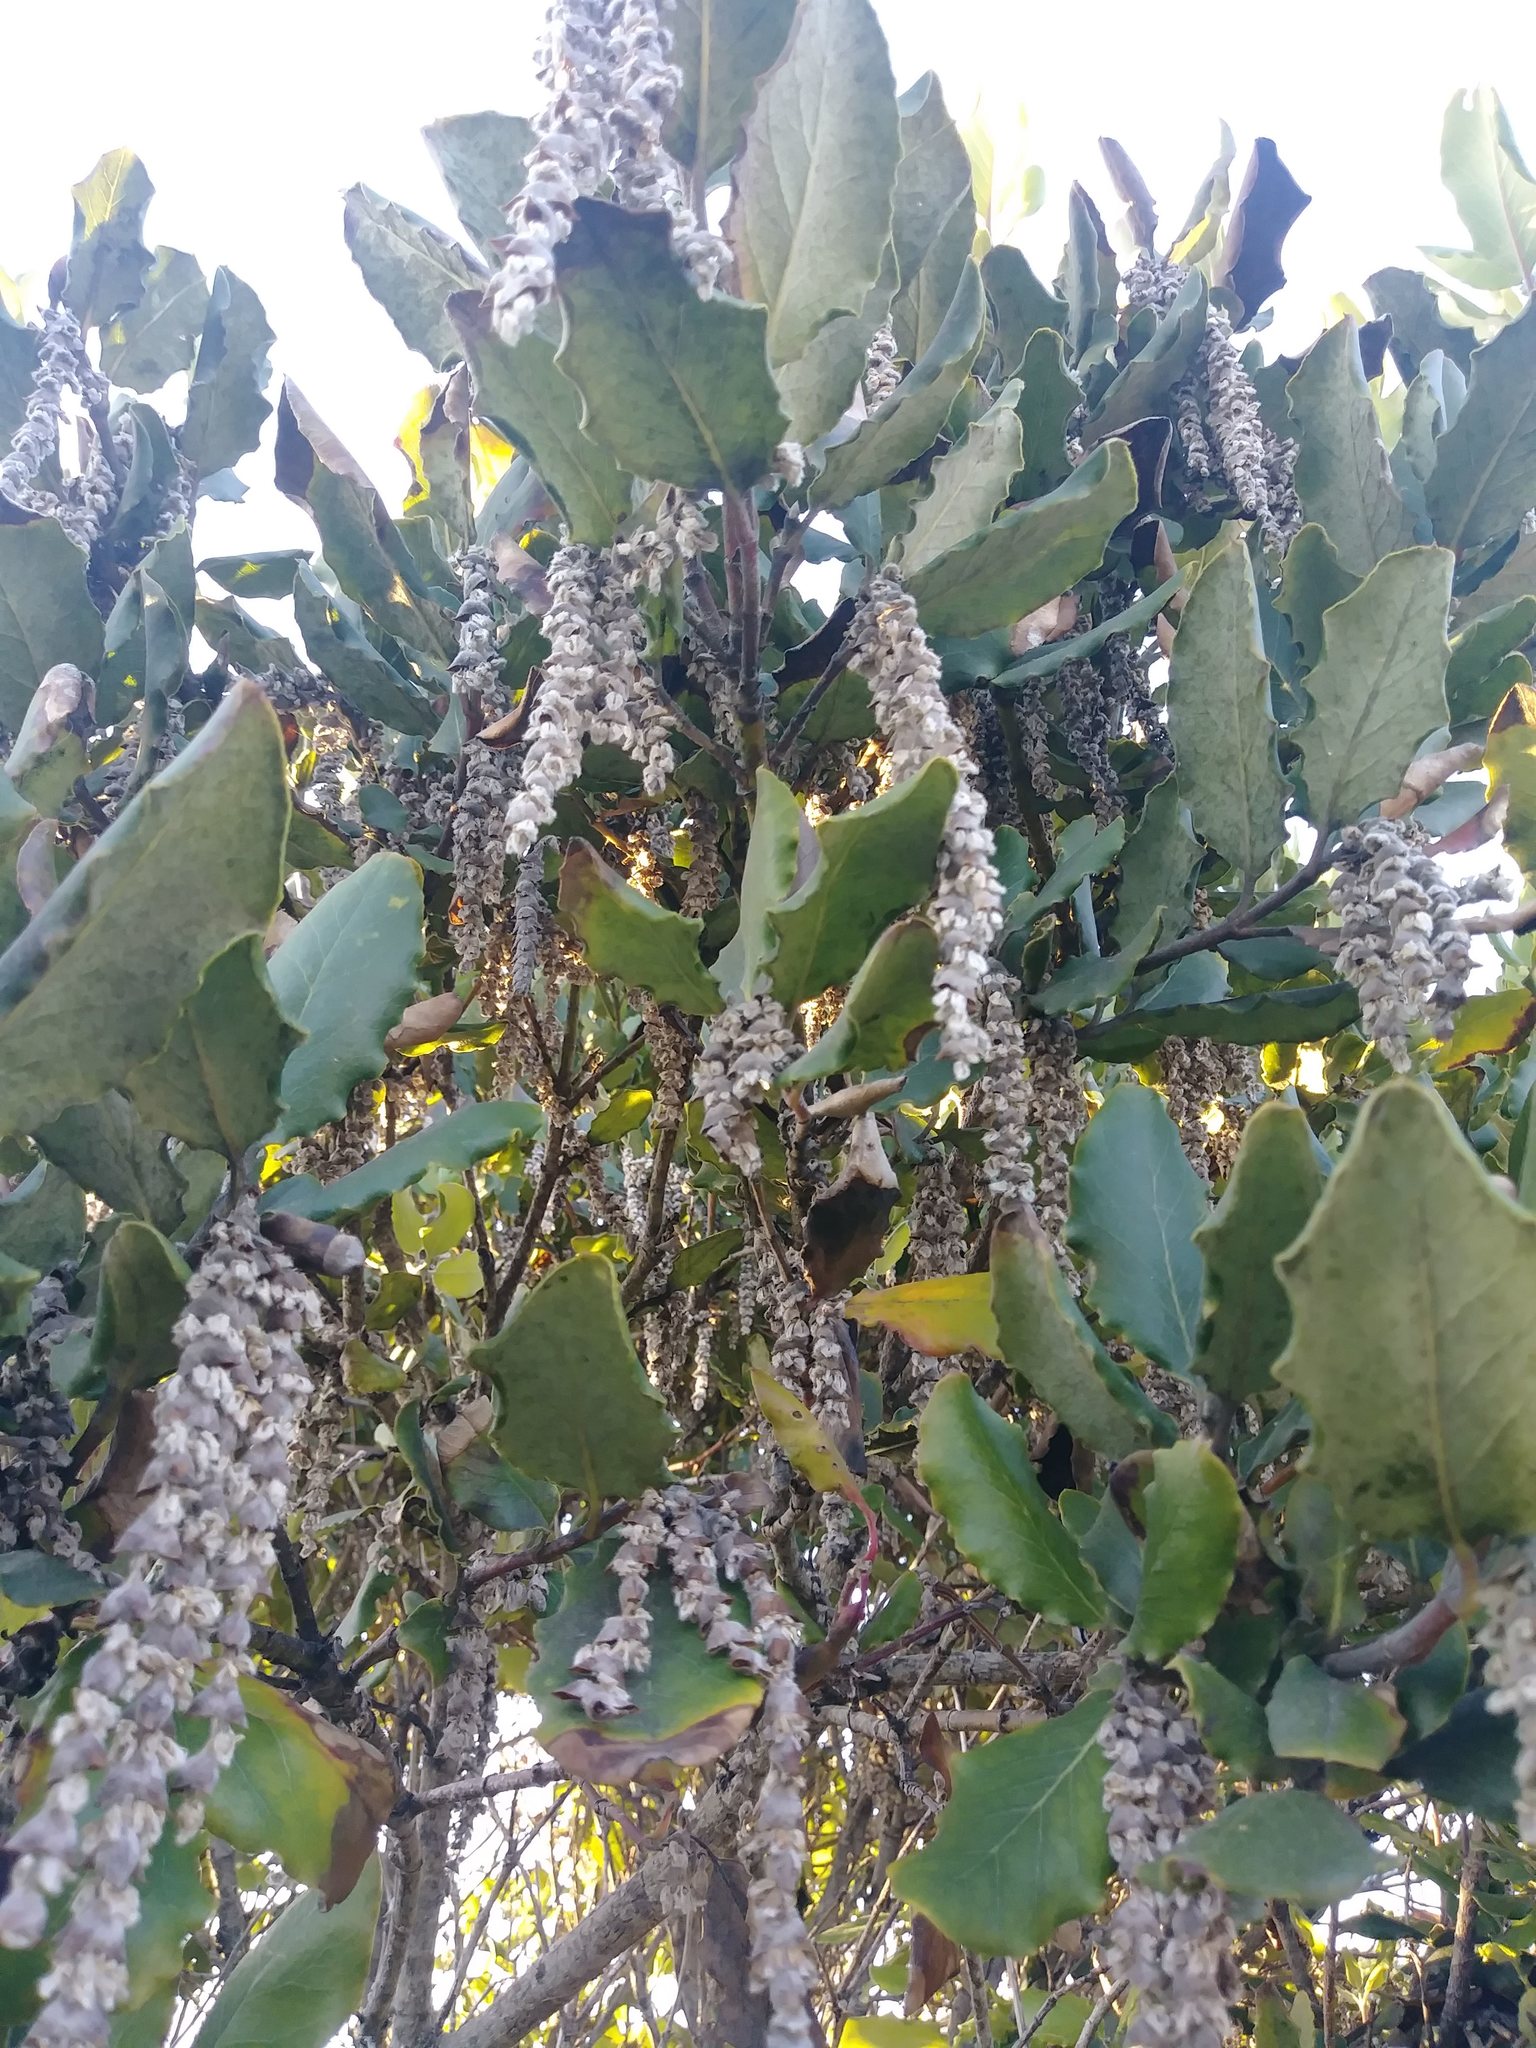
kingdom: Plantae
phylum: Tracheophyta
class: Magnoliopsida
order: Garryales
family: Garryaceae
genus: Garrya
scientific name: Garrya elliptica
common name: Silk-tassel
